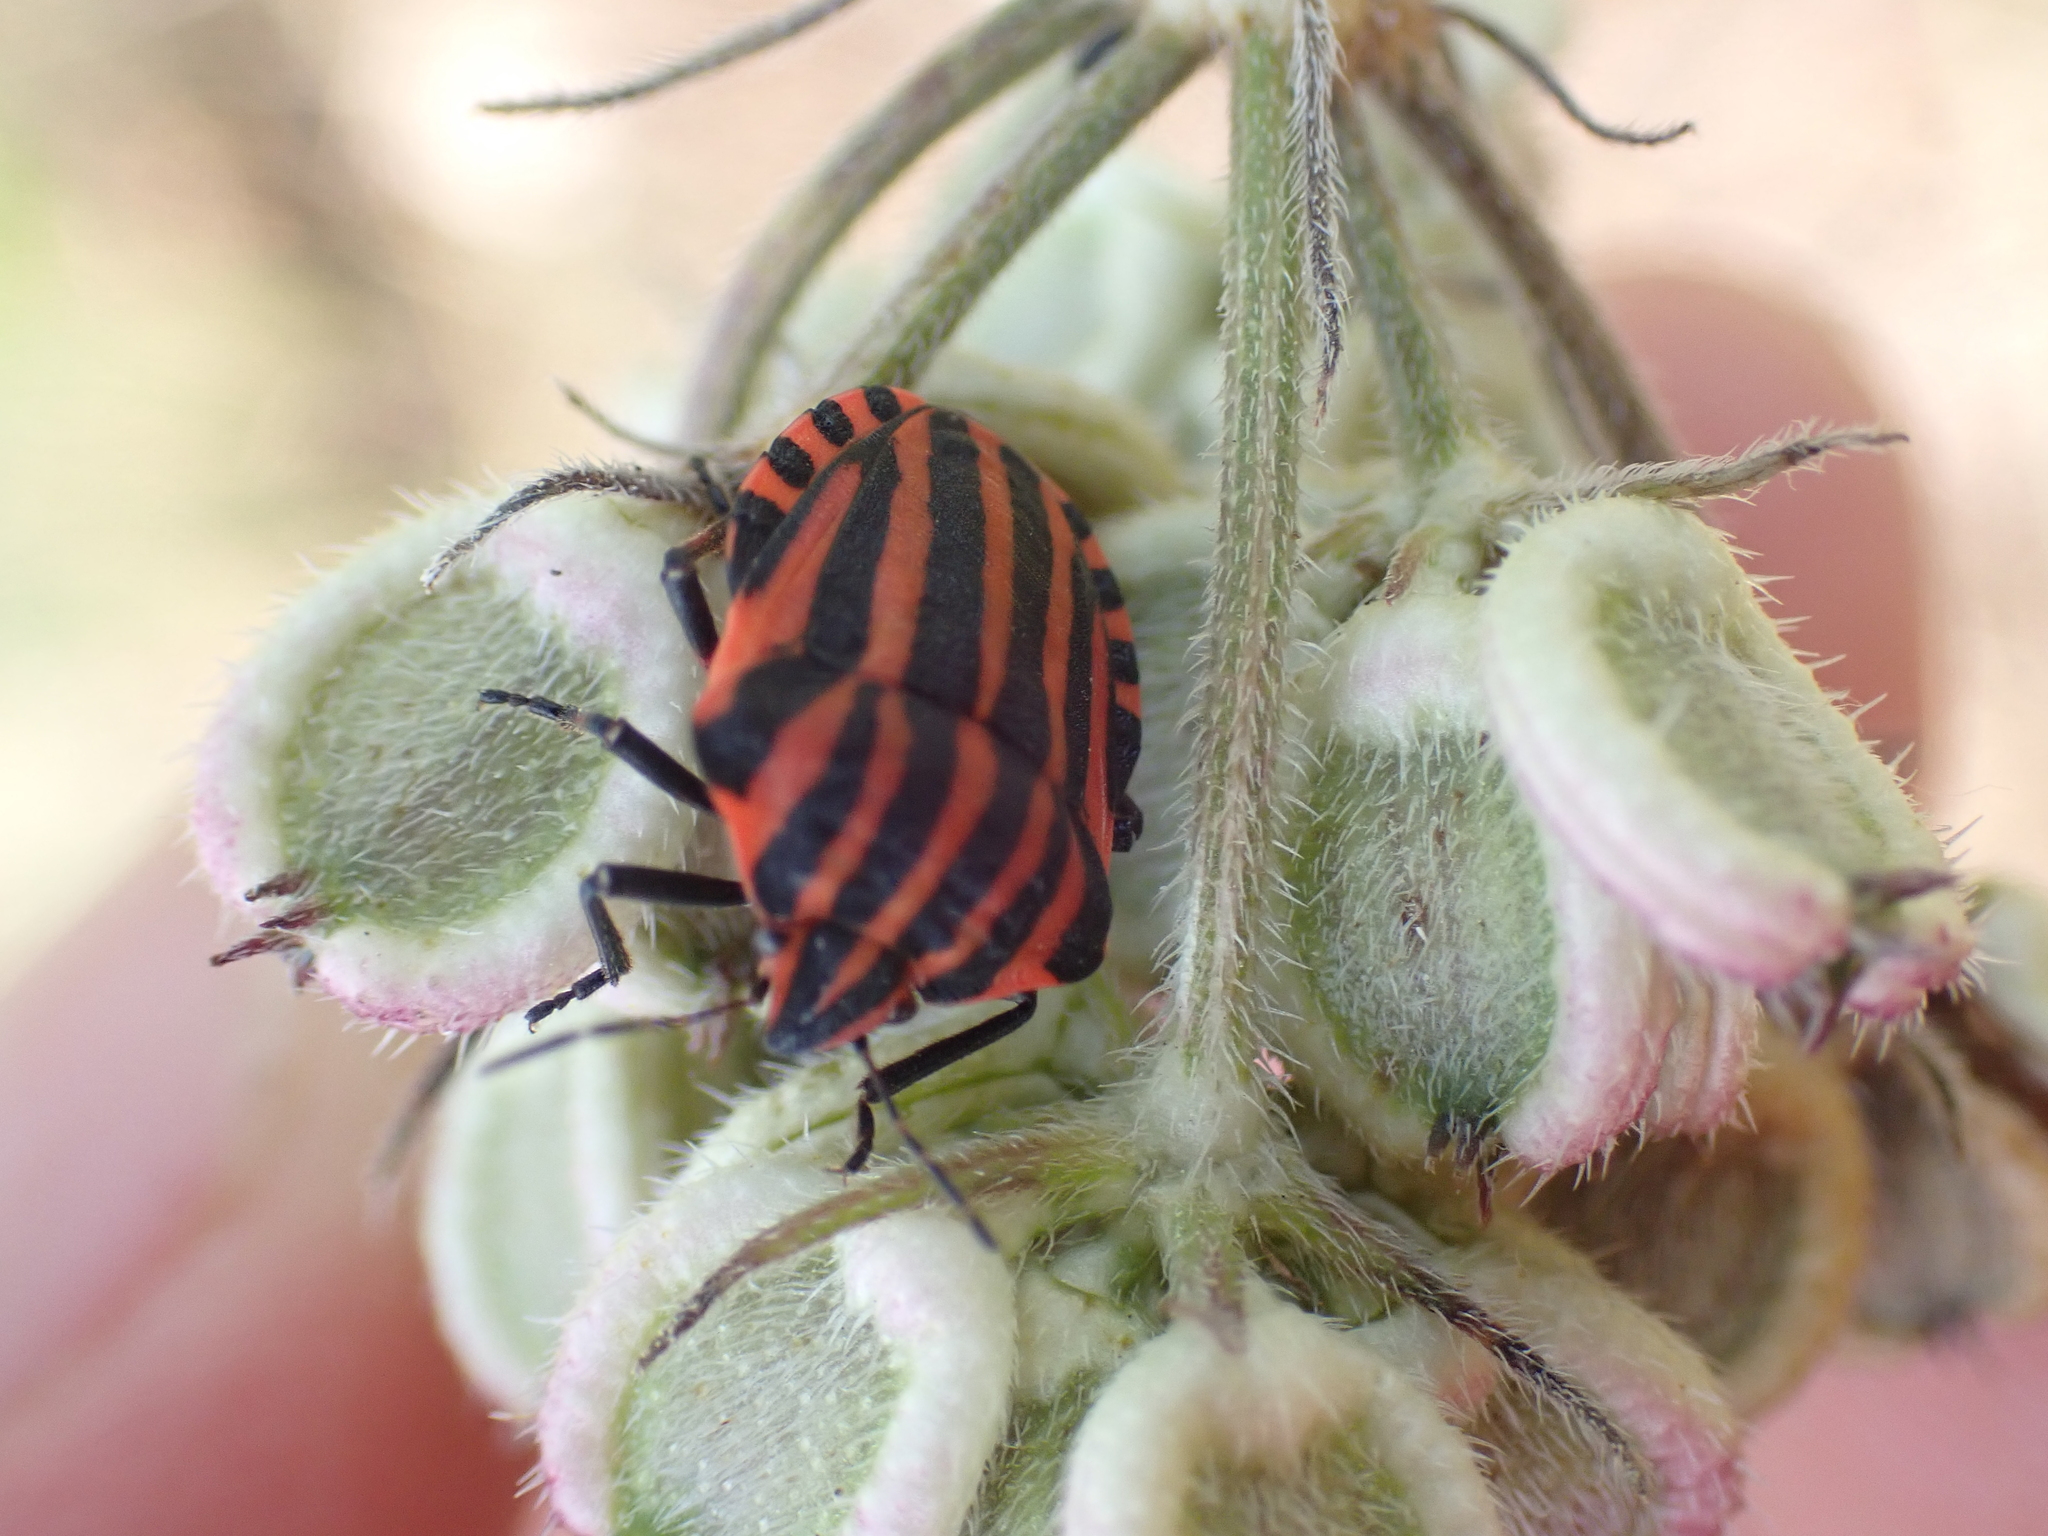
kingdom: Animalia
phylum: Arthropoda
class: Insecta
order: Hemiptera
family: Pentatomidae
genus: Graphosoma
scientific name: Graphosoma italicum
